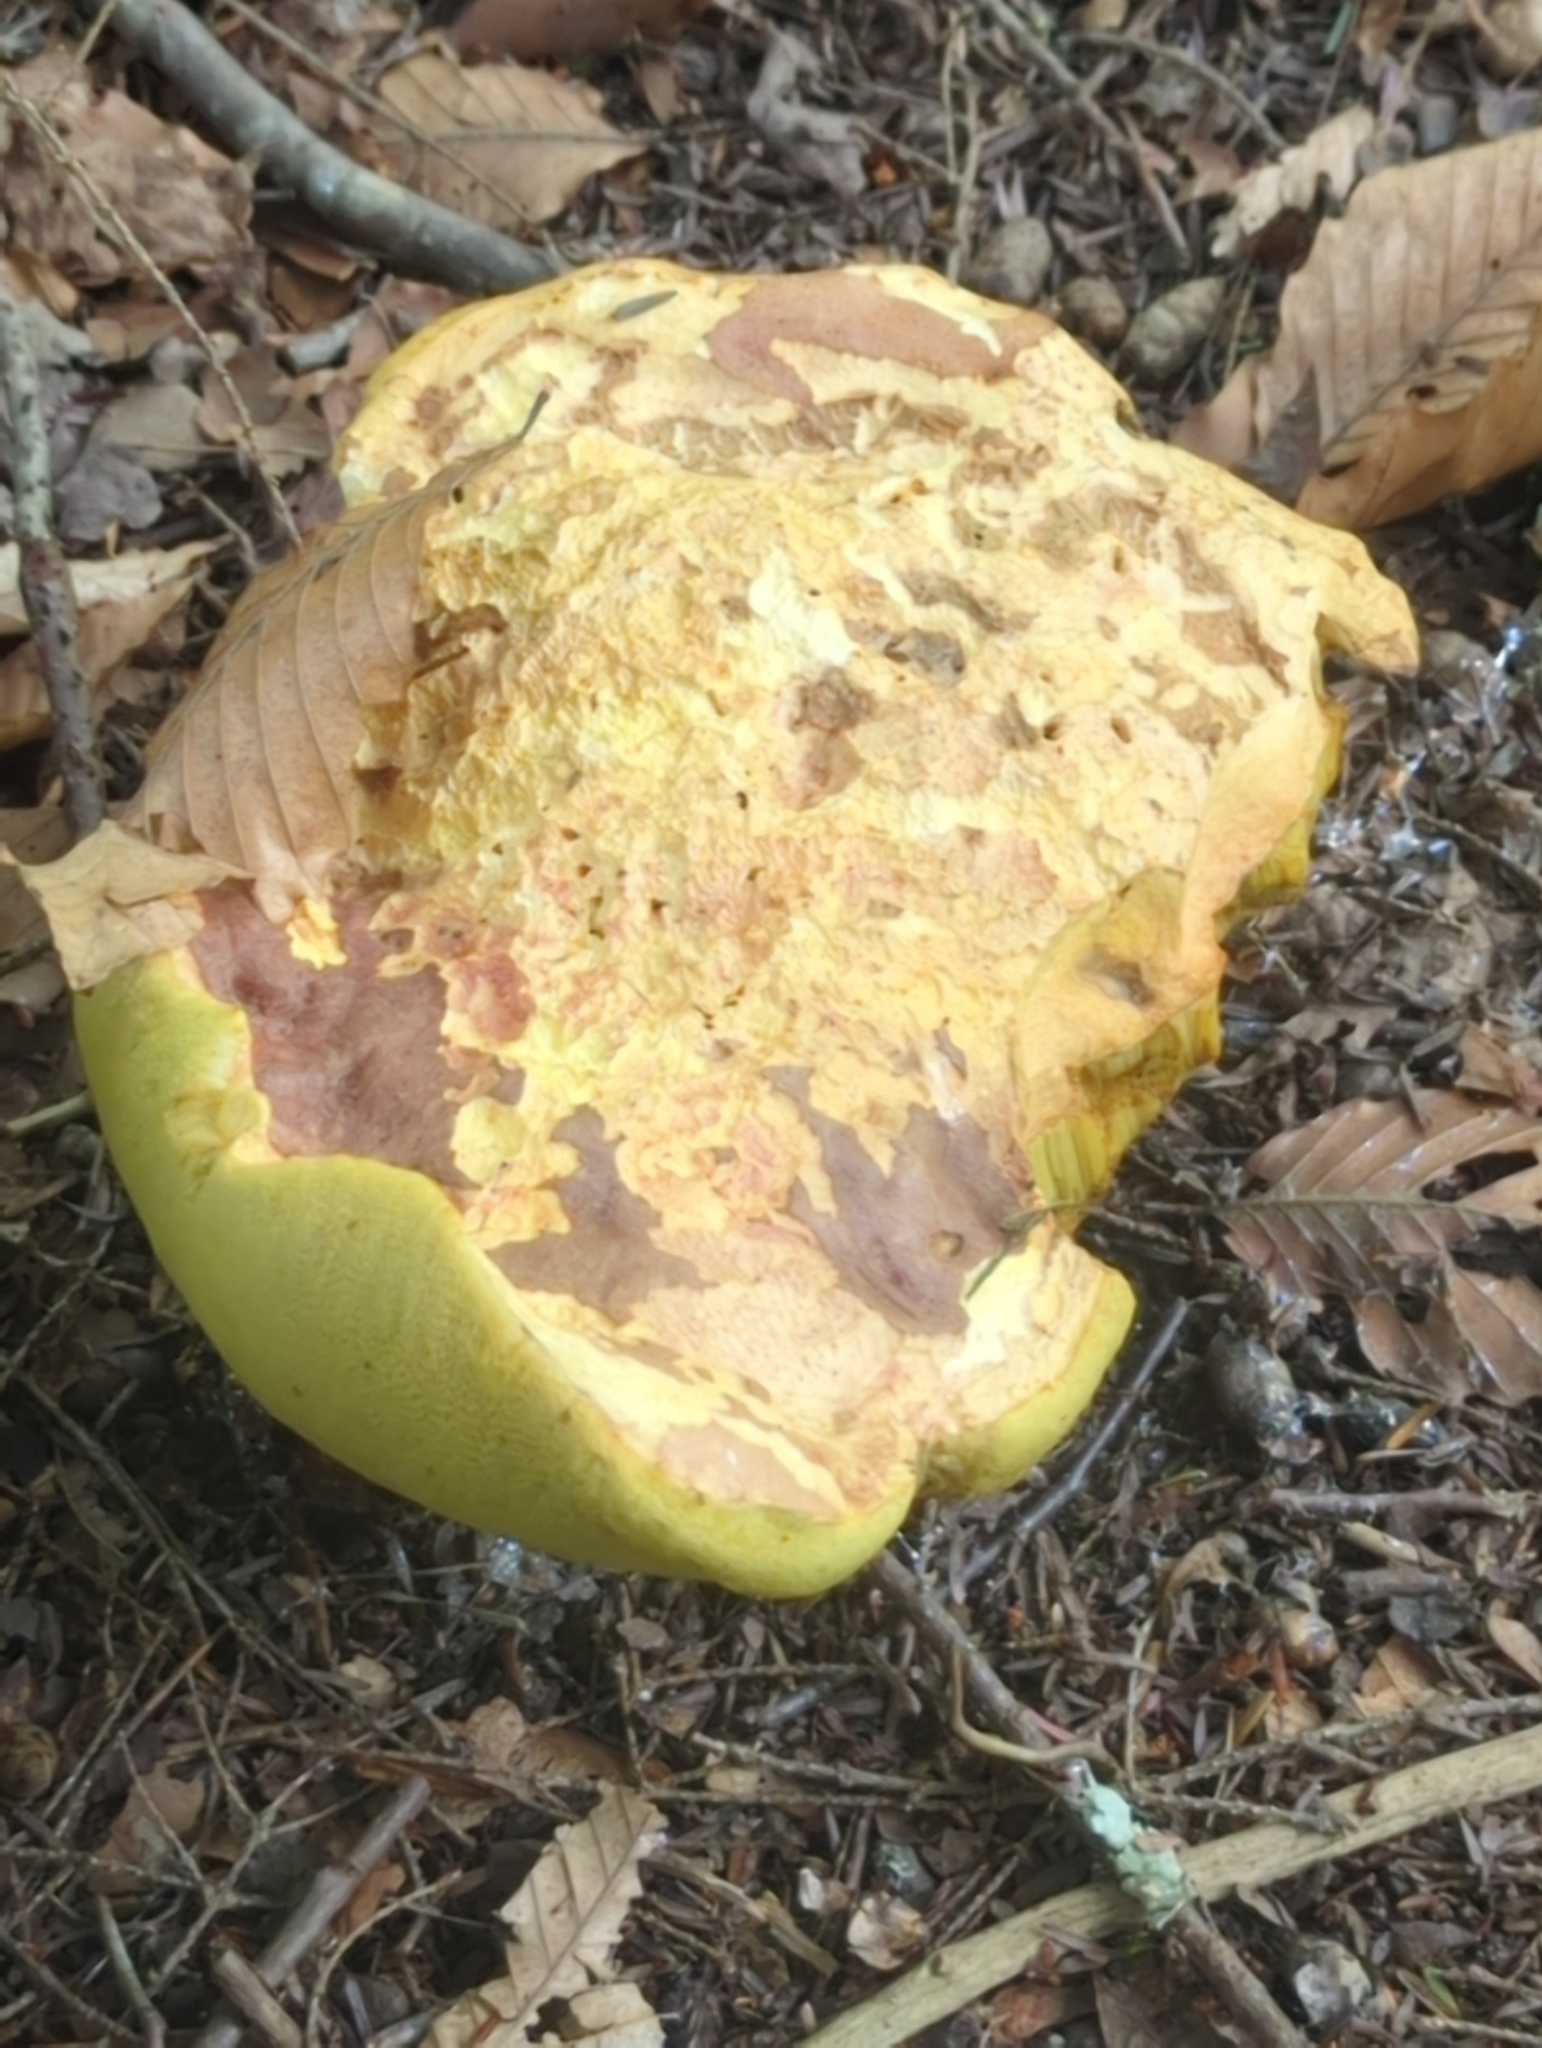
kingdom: Fungi
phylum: Basidiomycota
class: Agaricomycetes
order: Boletales
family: Boletaceae
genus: Butyriboletus
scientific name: Butyriboletus brunneus
